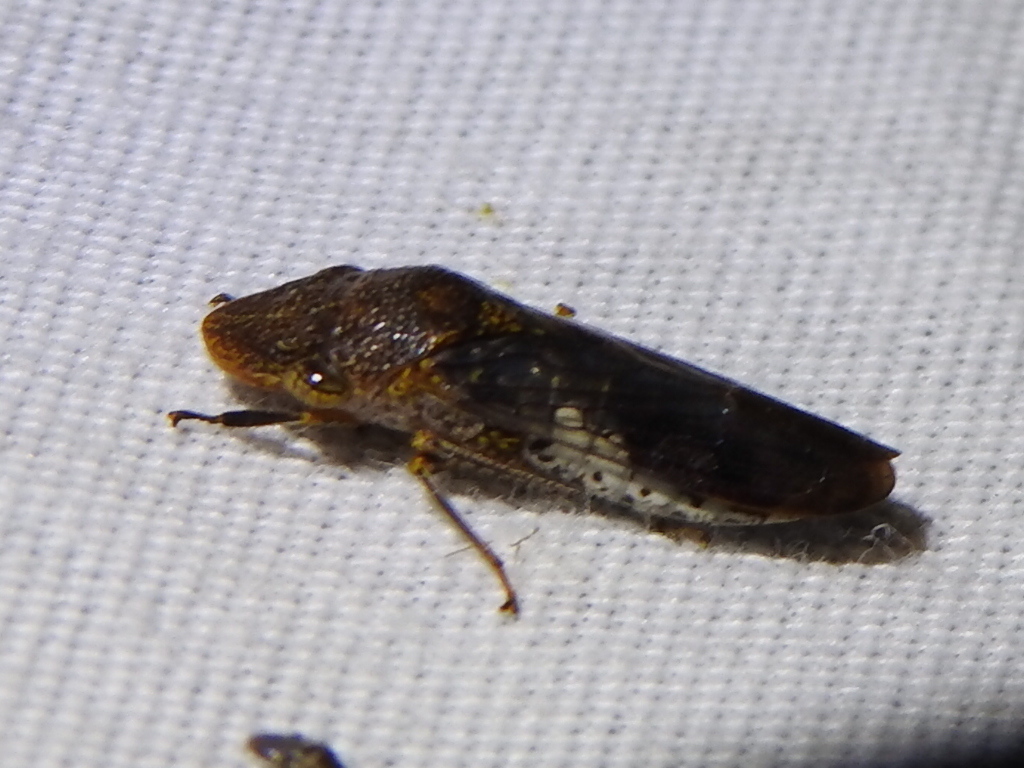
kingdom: Animalia
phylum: Arthropoda
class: Insecta
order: Hemiptera
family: Cicadellidae
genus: Homalodisca
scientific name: Homalodisca vitripennis
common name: Glassy-winged sharpshooter
